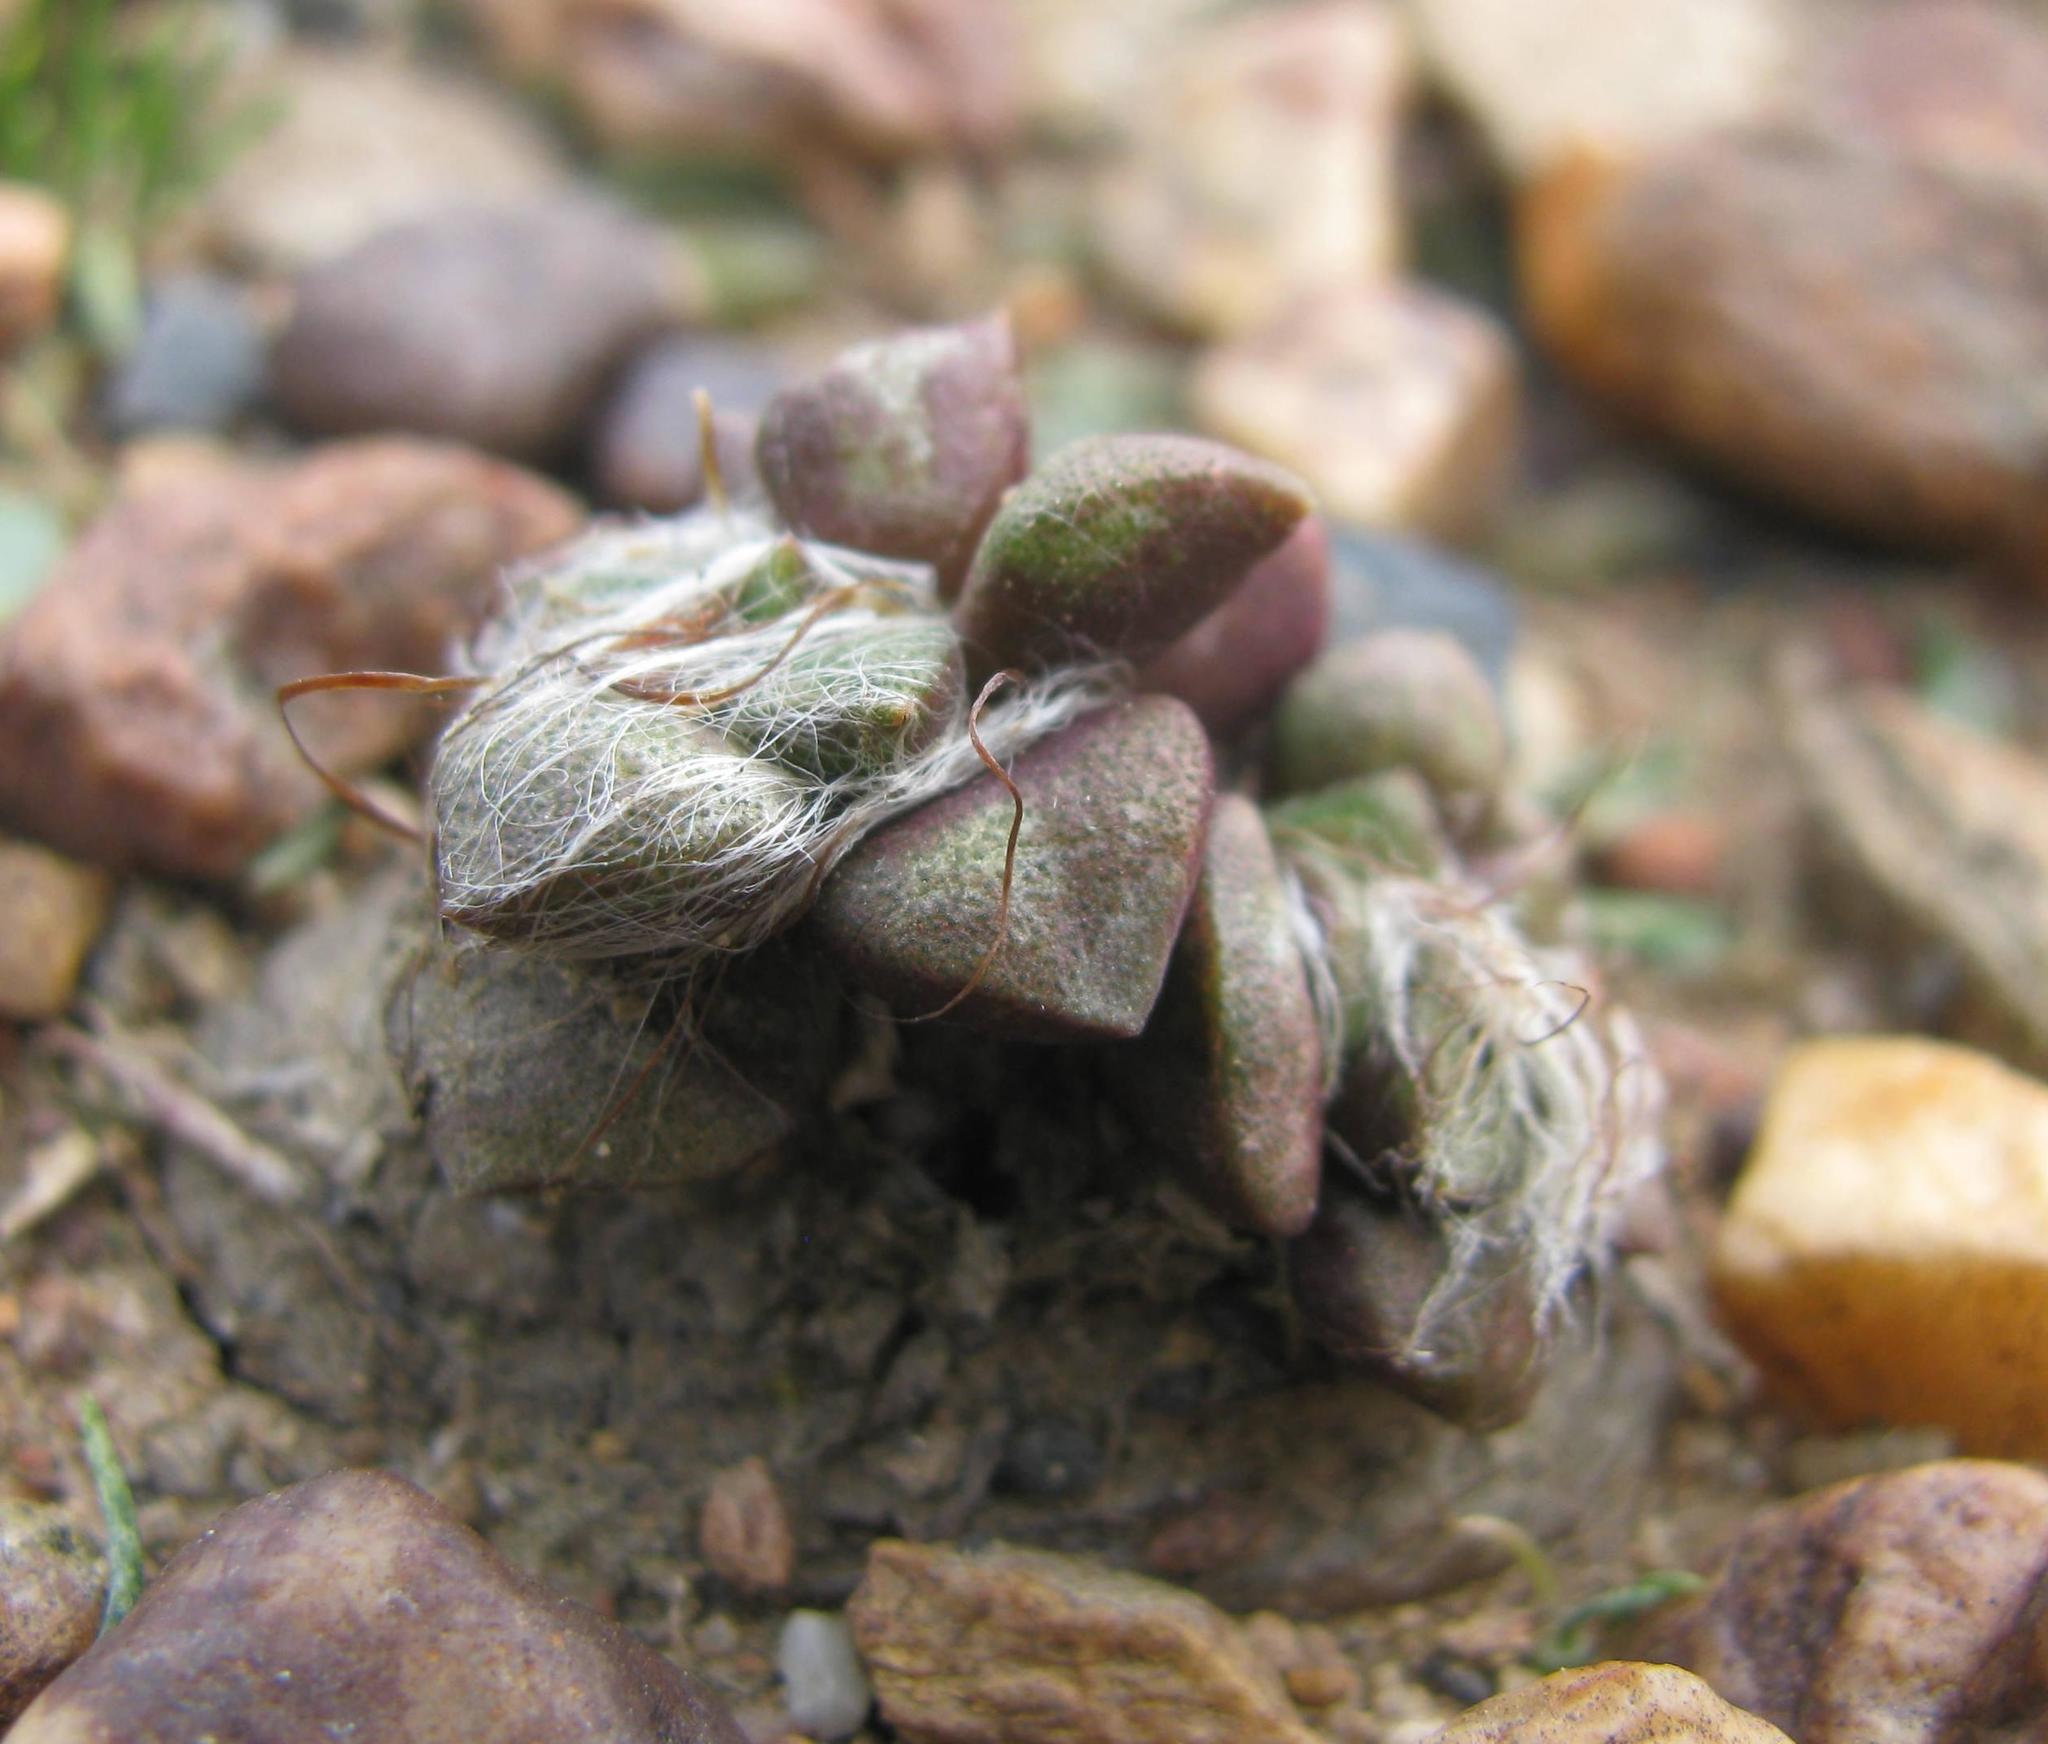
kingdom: Plantae
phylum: Tracheophyta
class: Magnoliopsida
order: Caryophyllales
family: Anacampserotaceae
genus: Anacampseros
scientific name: Anacampseros retusa
